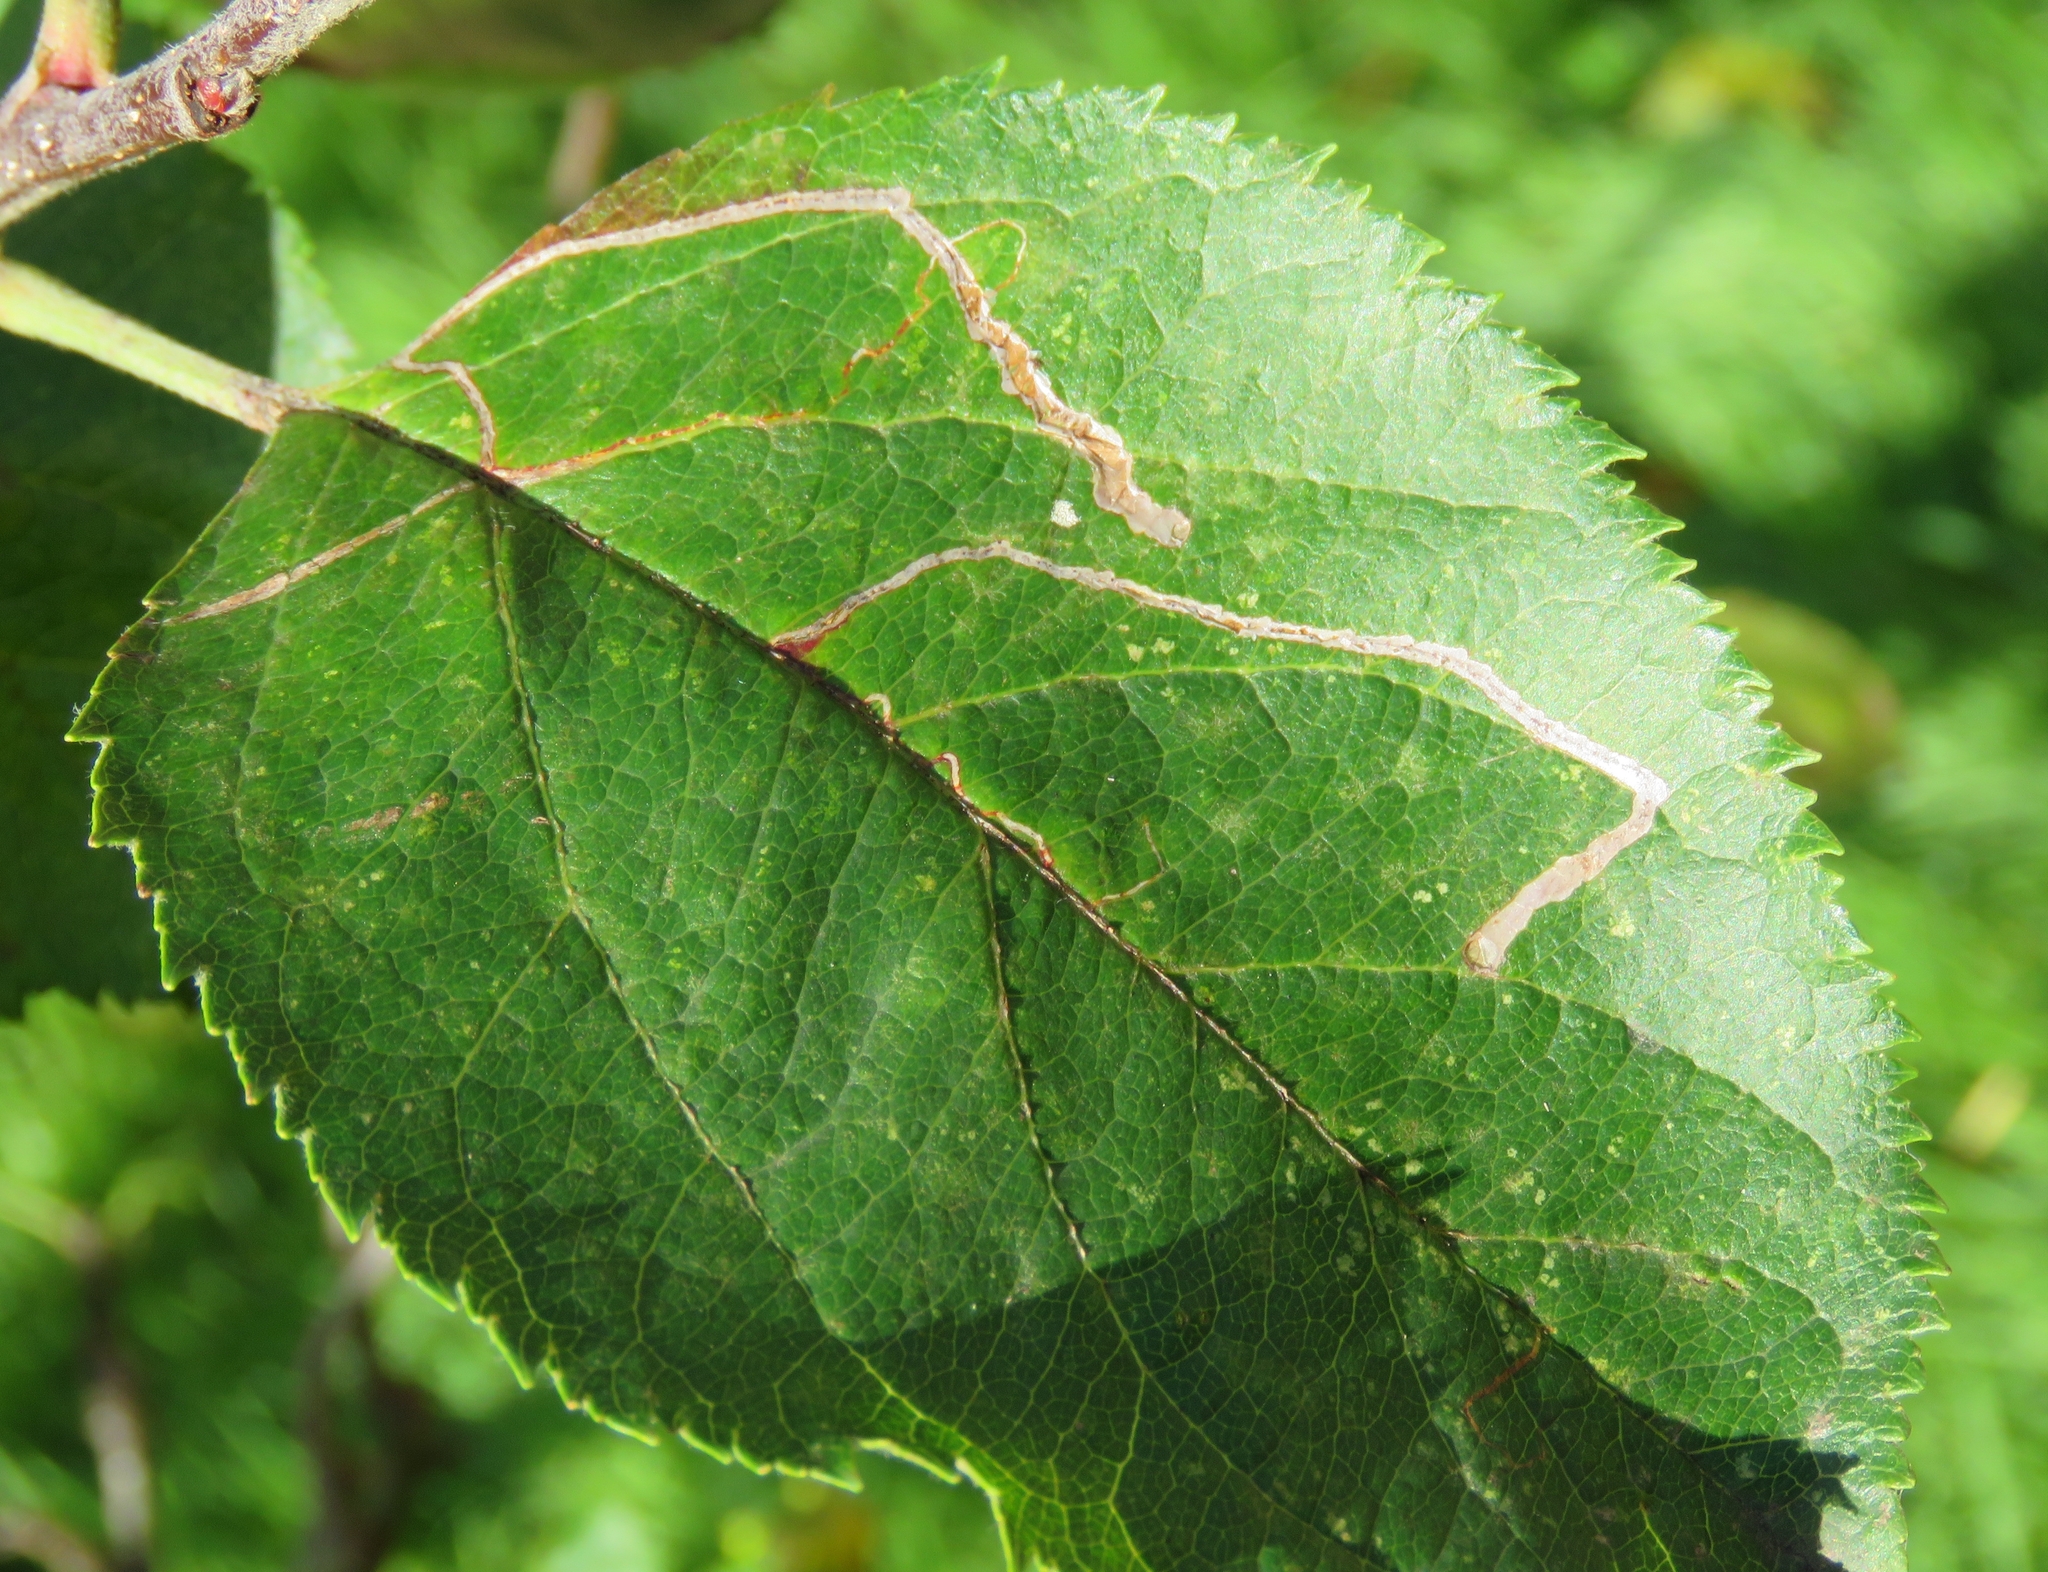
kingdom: Animalia
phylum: Arthropoda
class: Insecta
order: Lepidoptera
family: Lyonetiidae
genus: Lyonetia
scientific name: Lyonetia clerkella
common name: Apple leaf miner
